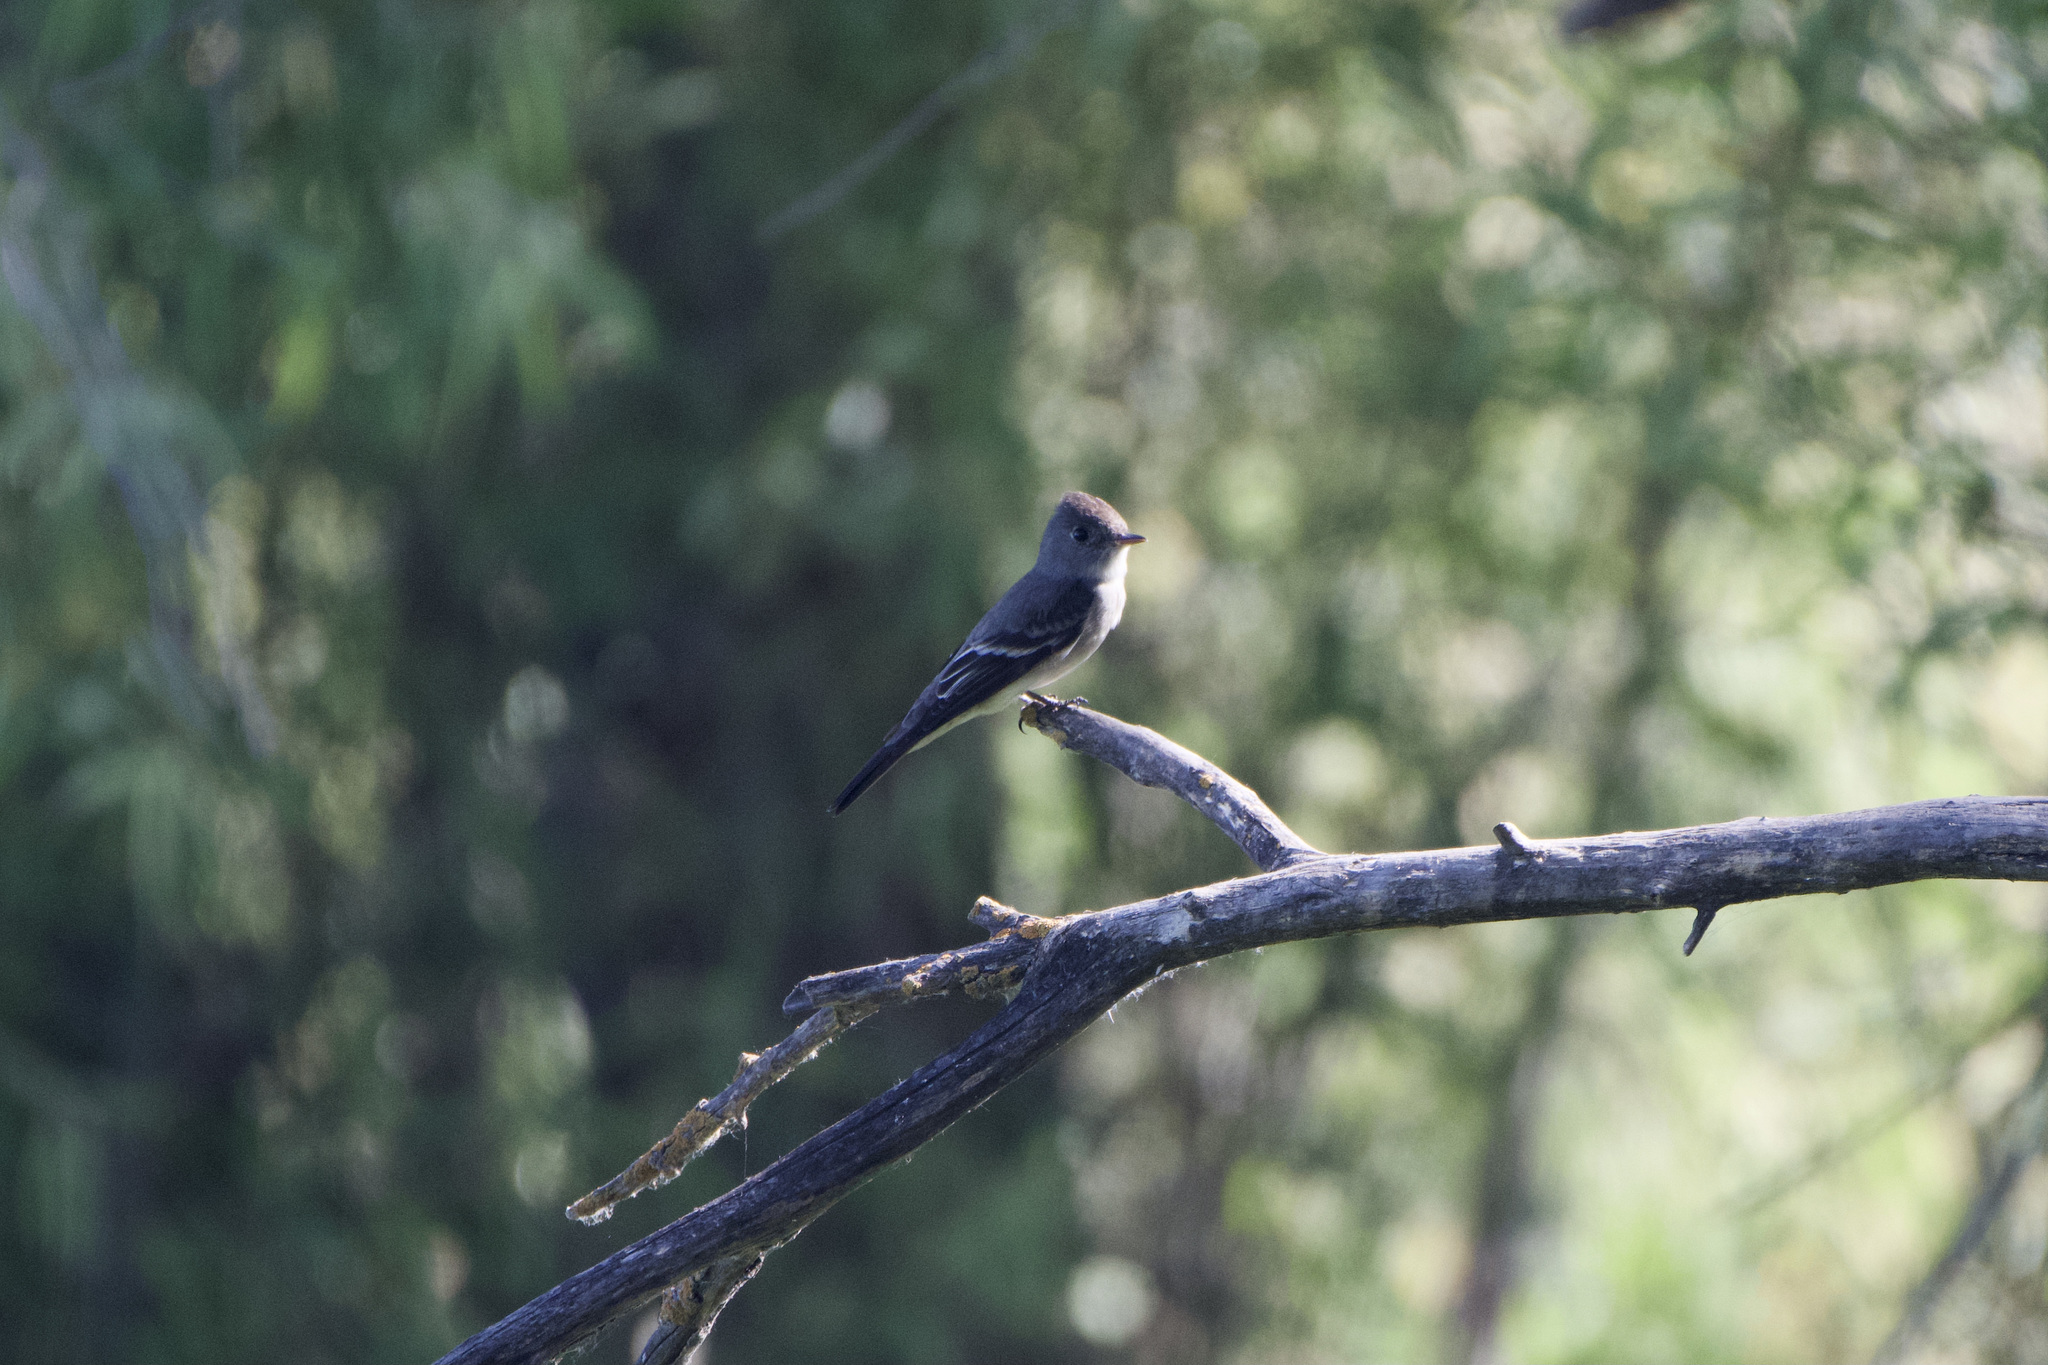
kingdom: Animalia
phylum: Chordata
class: Aves
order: Passeriformes
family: Tyrannidae
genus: Contopus
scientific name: Contopus sordidulus
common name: Western wood-pewee
